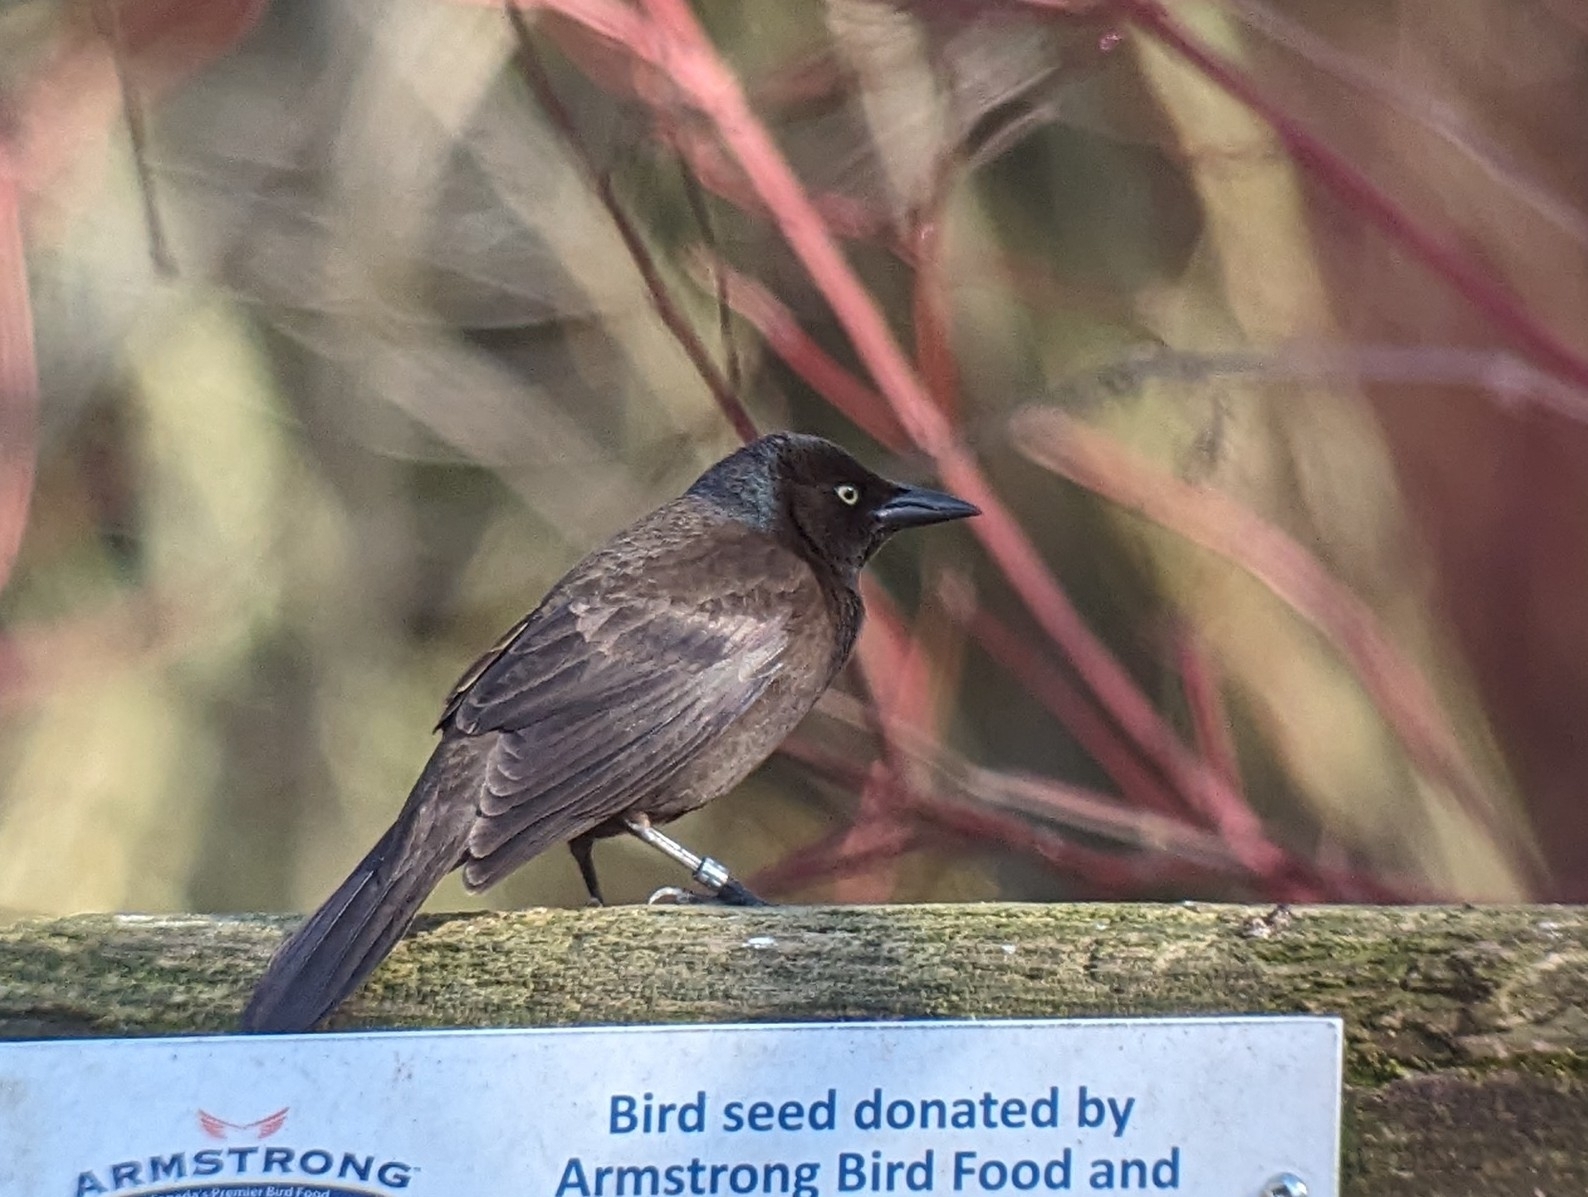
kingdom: Animalia
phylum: Chordata
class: Aves
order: Passeriformes
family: Icteridae
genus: Quiscalus
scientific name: Quiscalus quiscula
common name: Common grackle
